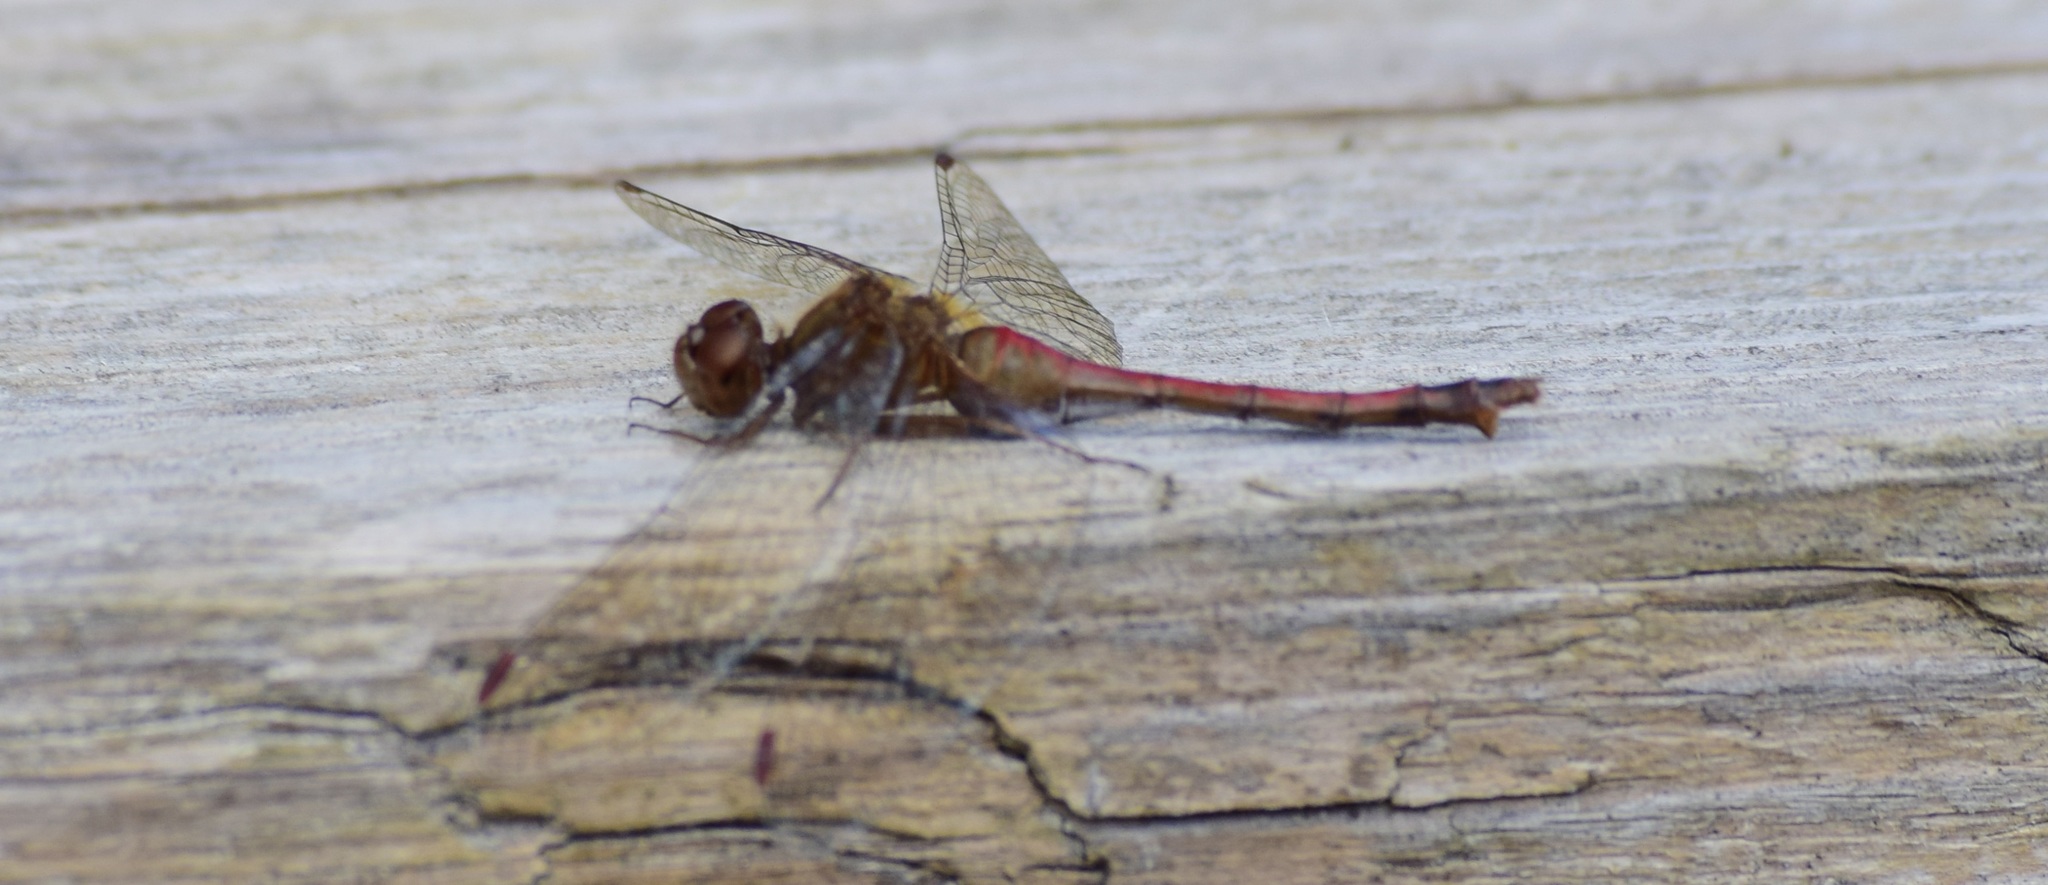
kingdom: Animalia
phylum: Arthropoda
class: Insecta
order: Odonata
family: Libellulidae
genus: Sympetrum
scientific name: Sympetrum vicinum
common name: Autumn meadowhawk
